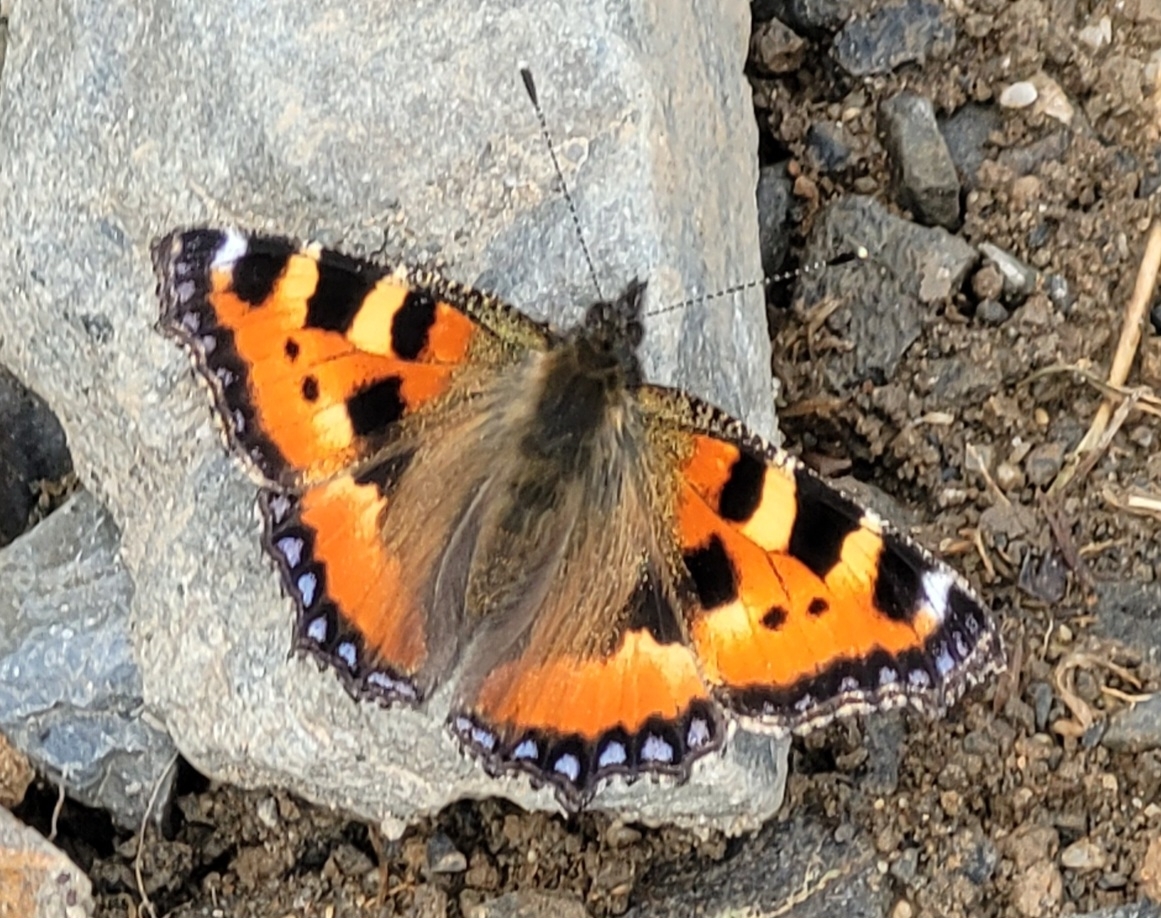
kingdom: Animalia
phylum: Arthropoda
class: Insecta
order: Lepidoptera
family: Nymphalidae
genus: Aglais
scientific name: Aglais urticae
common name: Small tortoiseshell
